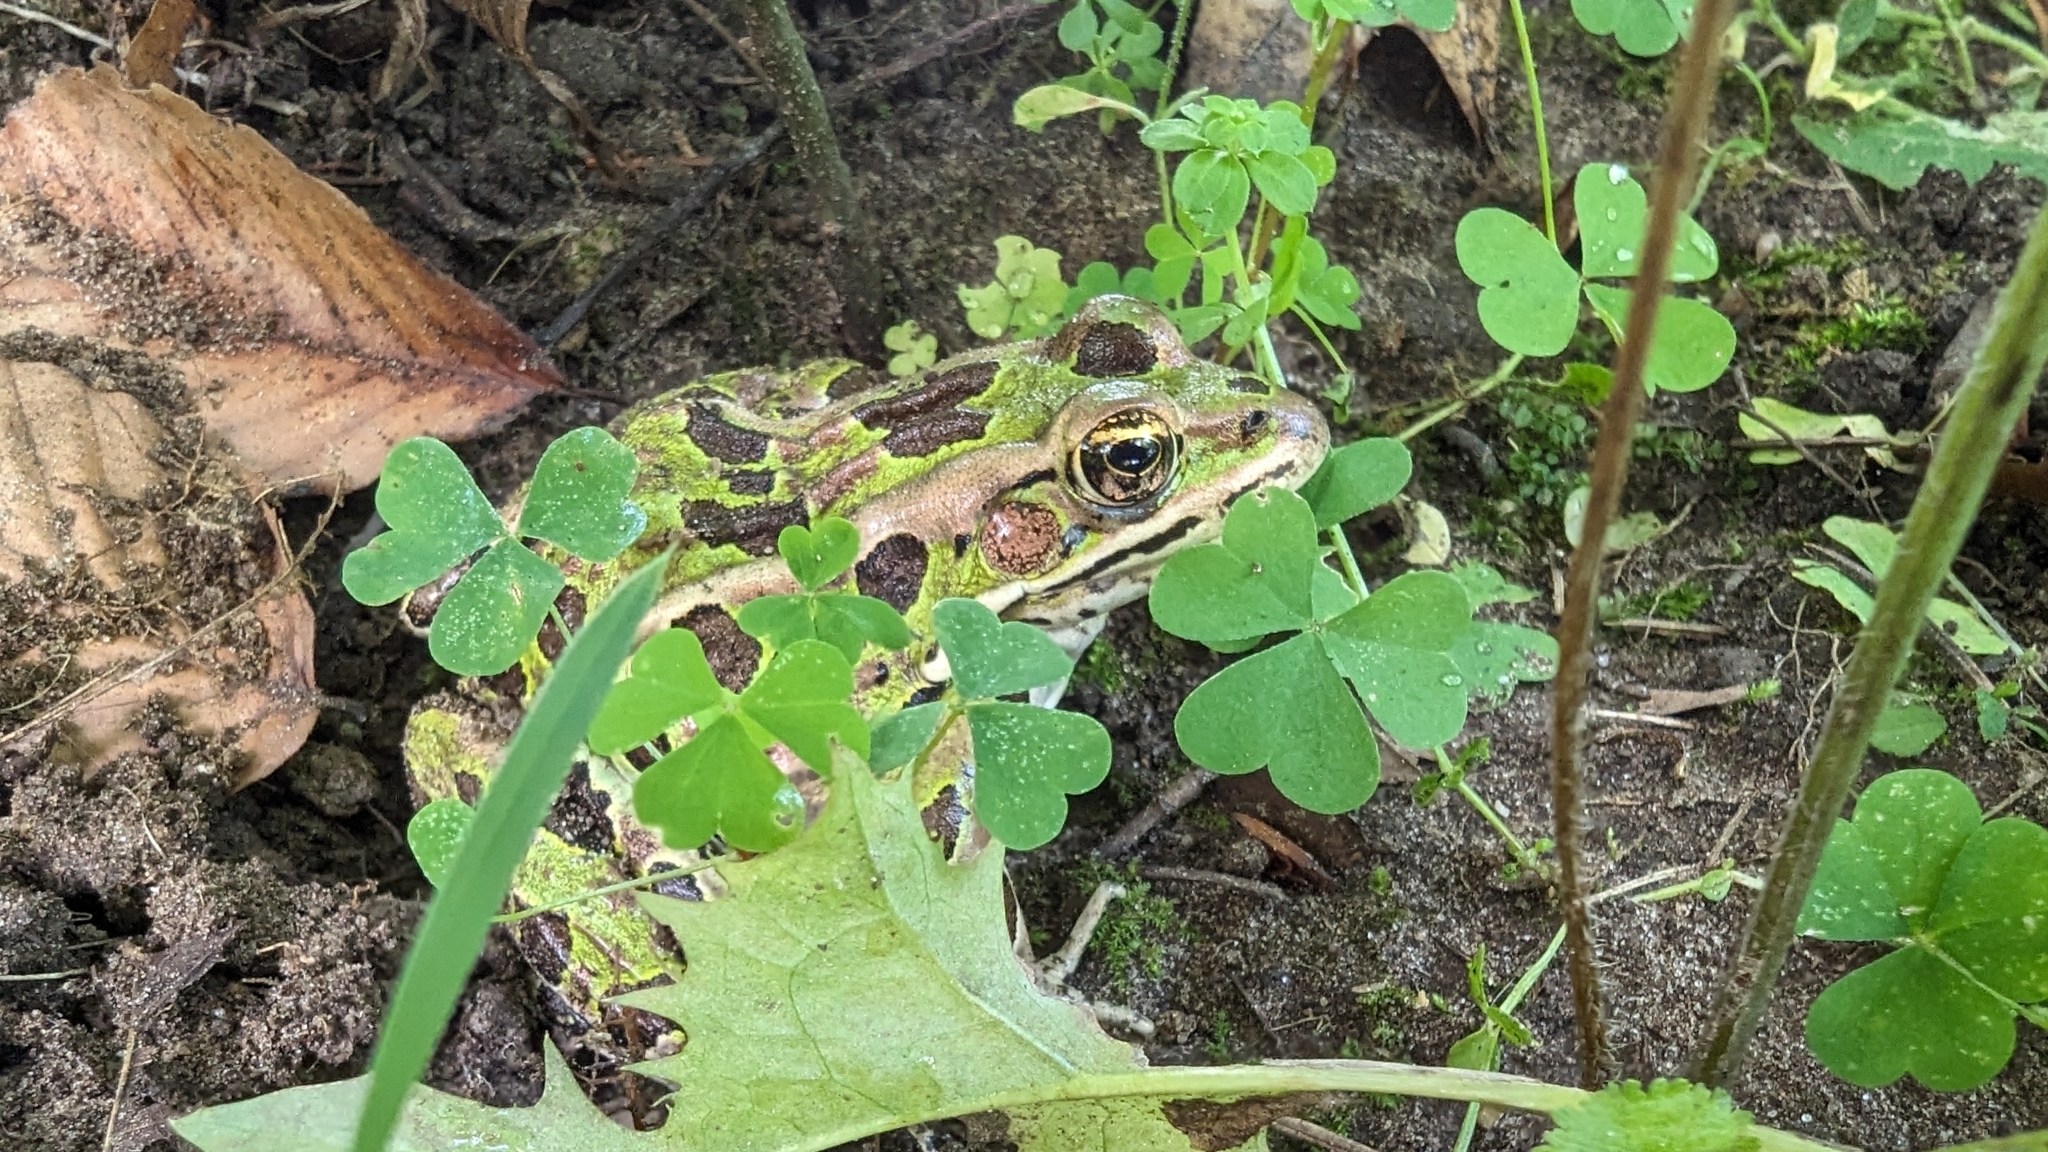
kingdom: Animalia
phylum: Chordata
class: Amphibia
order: Anura
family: Ranidae
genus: Lithobates
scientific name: Lithobates pipiens
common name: Northern leopard frog
